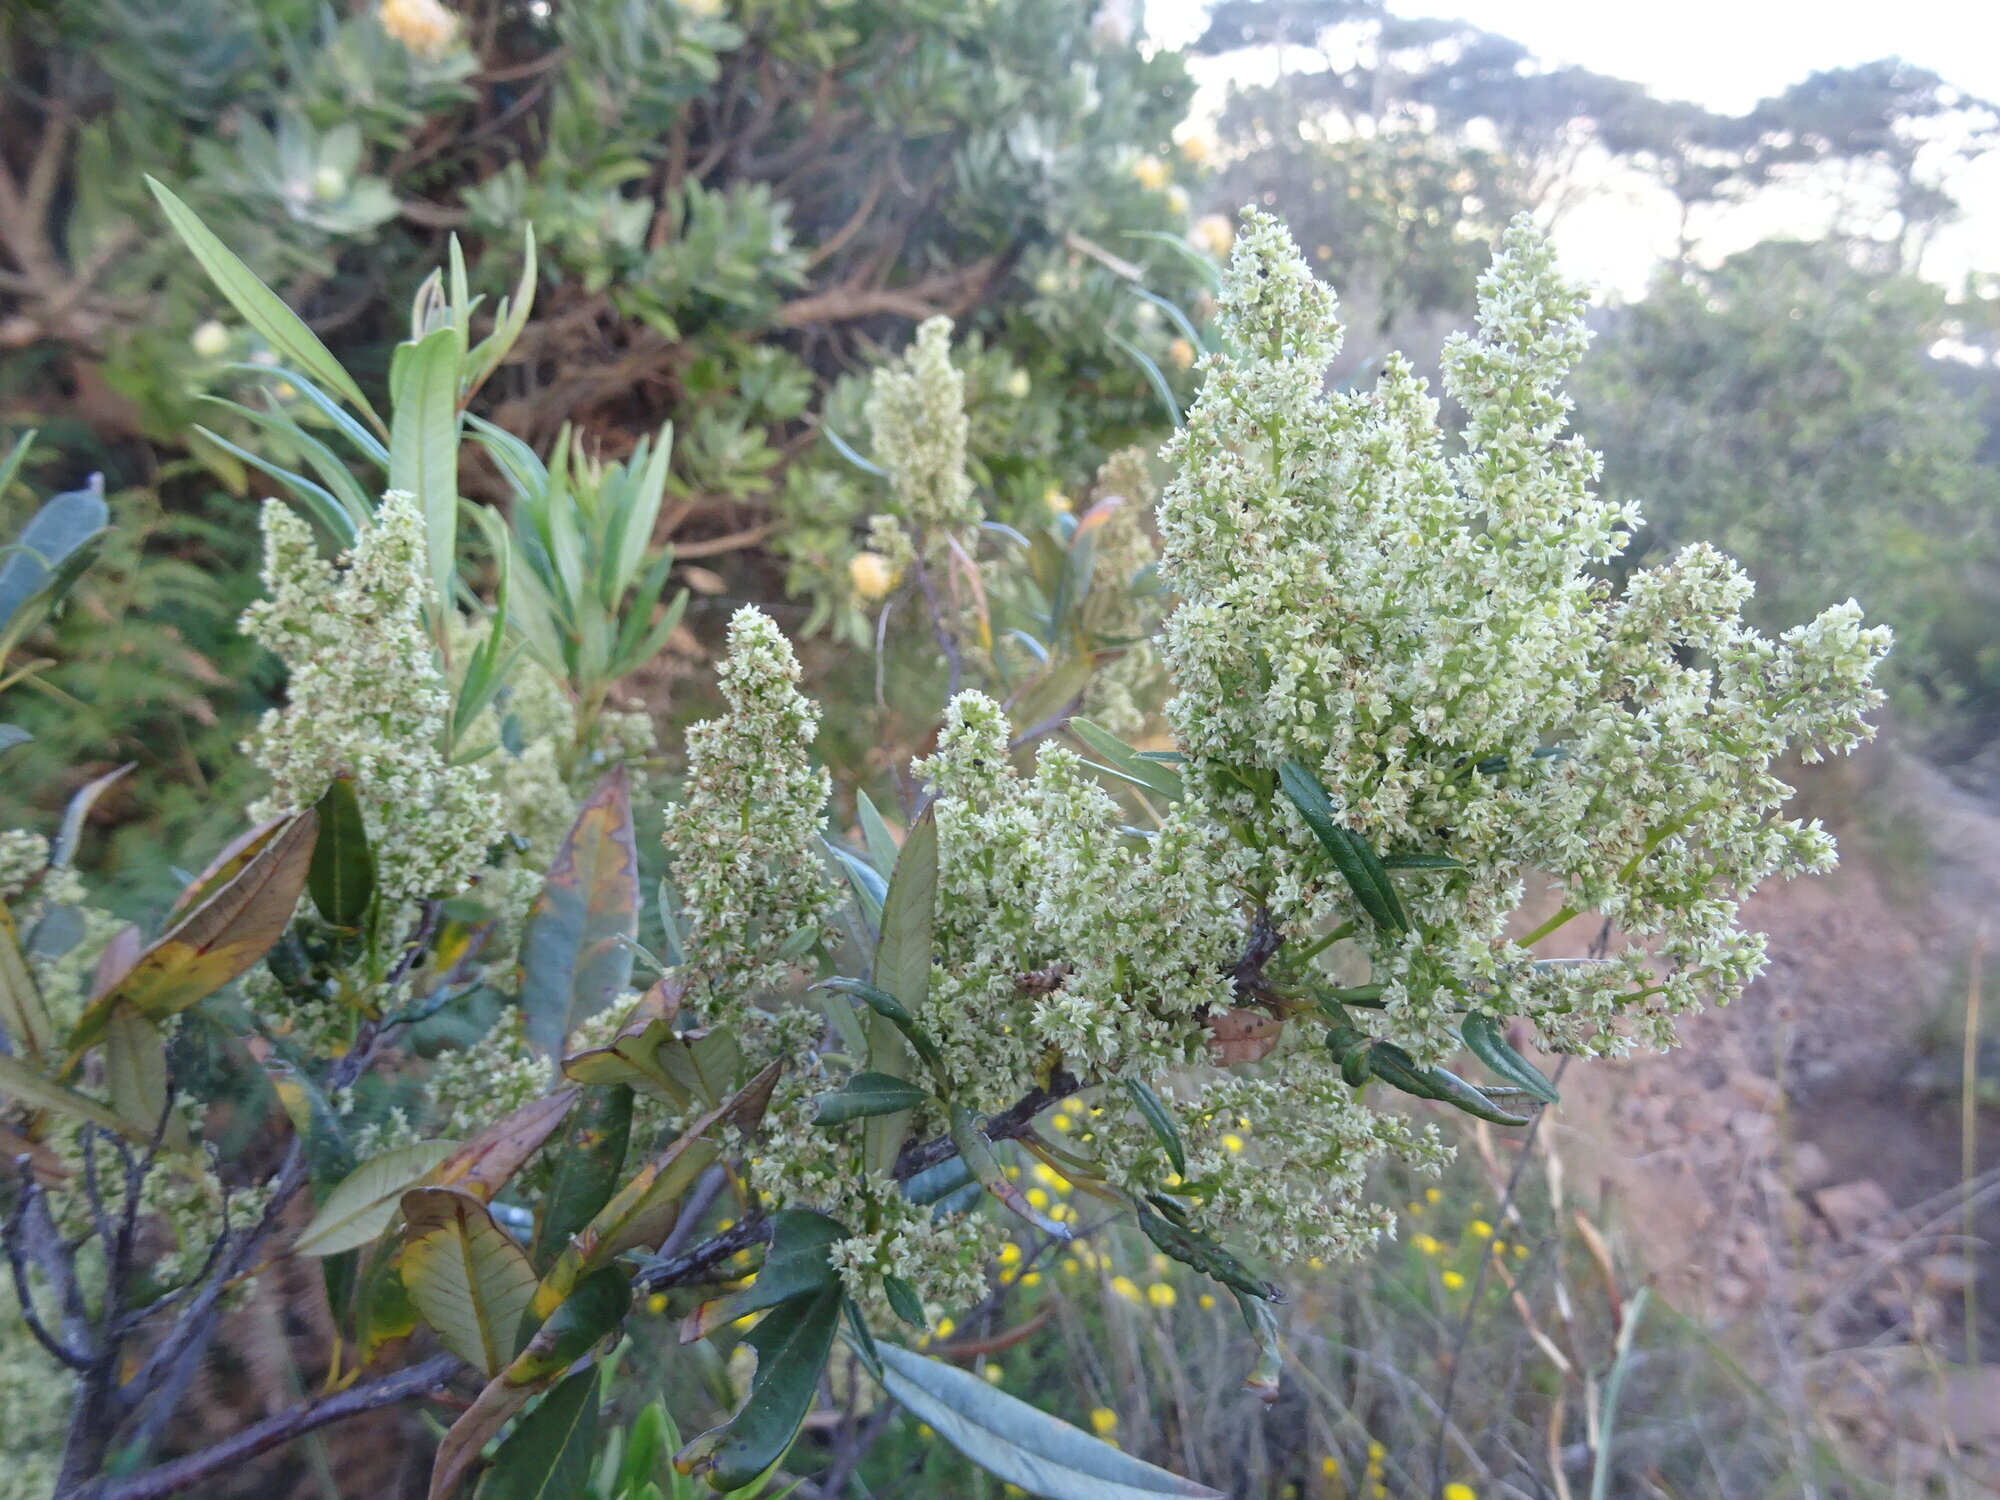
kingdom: Plantae
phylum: Tracheophyta
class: Magnoliopsida
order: Sapindales
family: Anacardiaceae
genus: Searsia
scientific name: Searsia angustifolia
